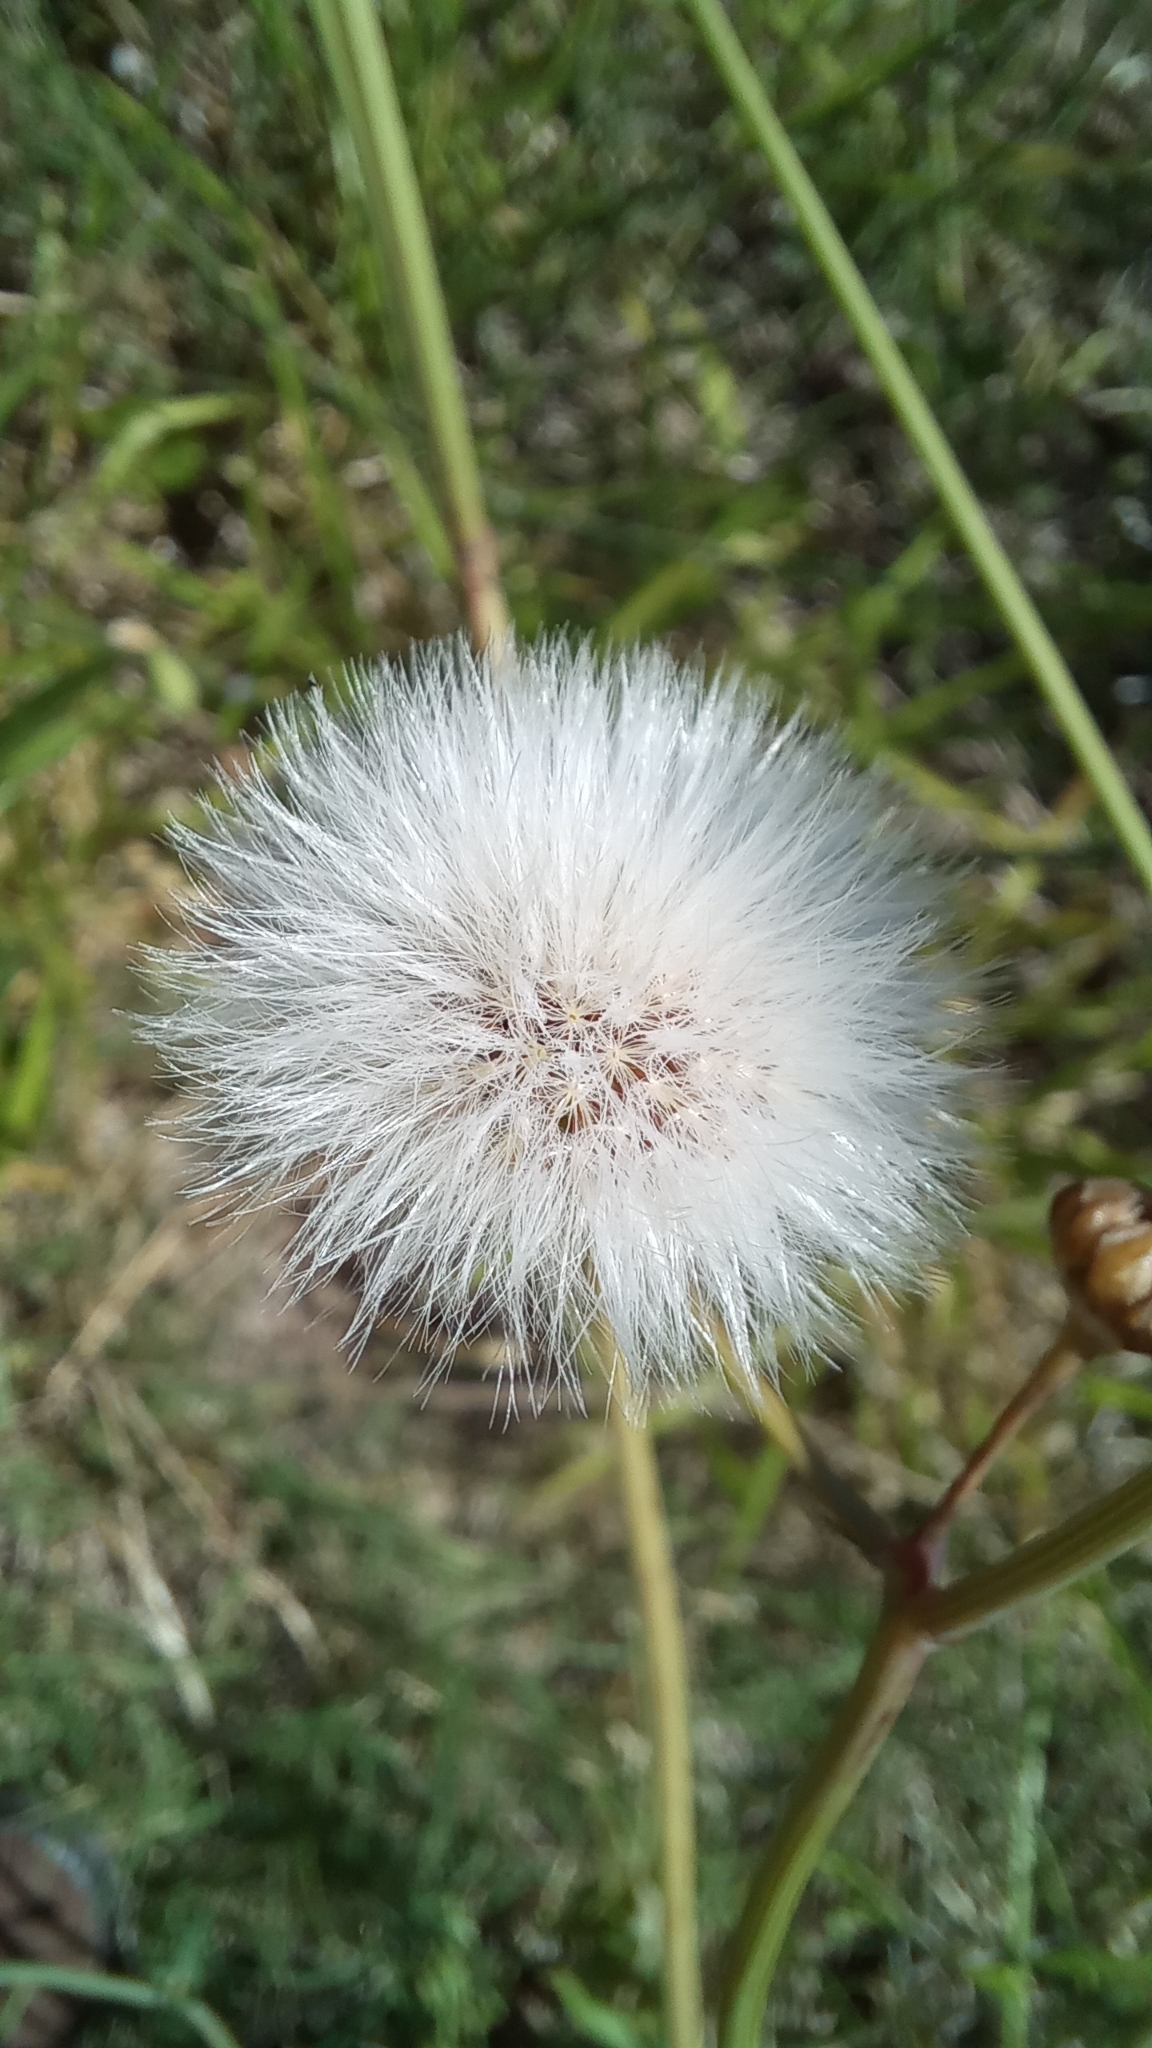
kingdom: Plantae
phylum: Tracheophyta
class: Magnoliopsida
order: Asterales
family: Asteraceae
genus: Sonchus
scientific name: Sonchus oleraceus
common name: Common sowthistle
